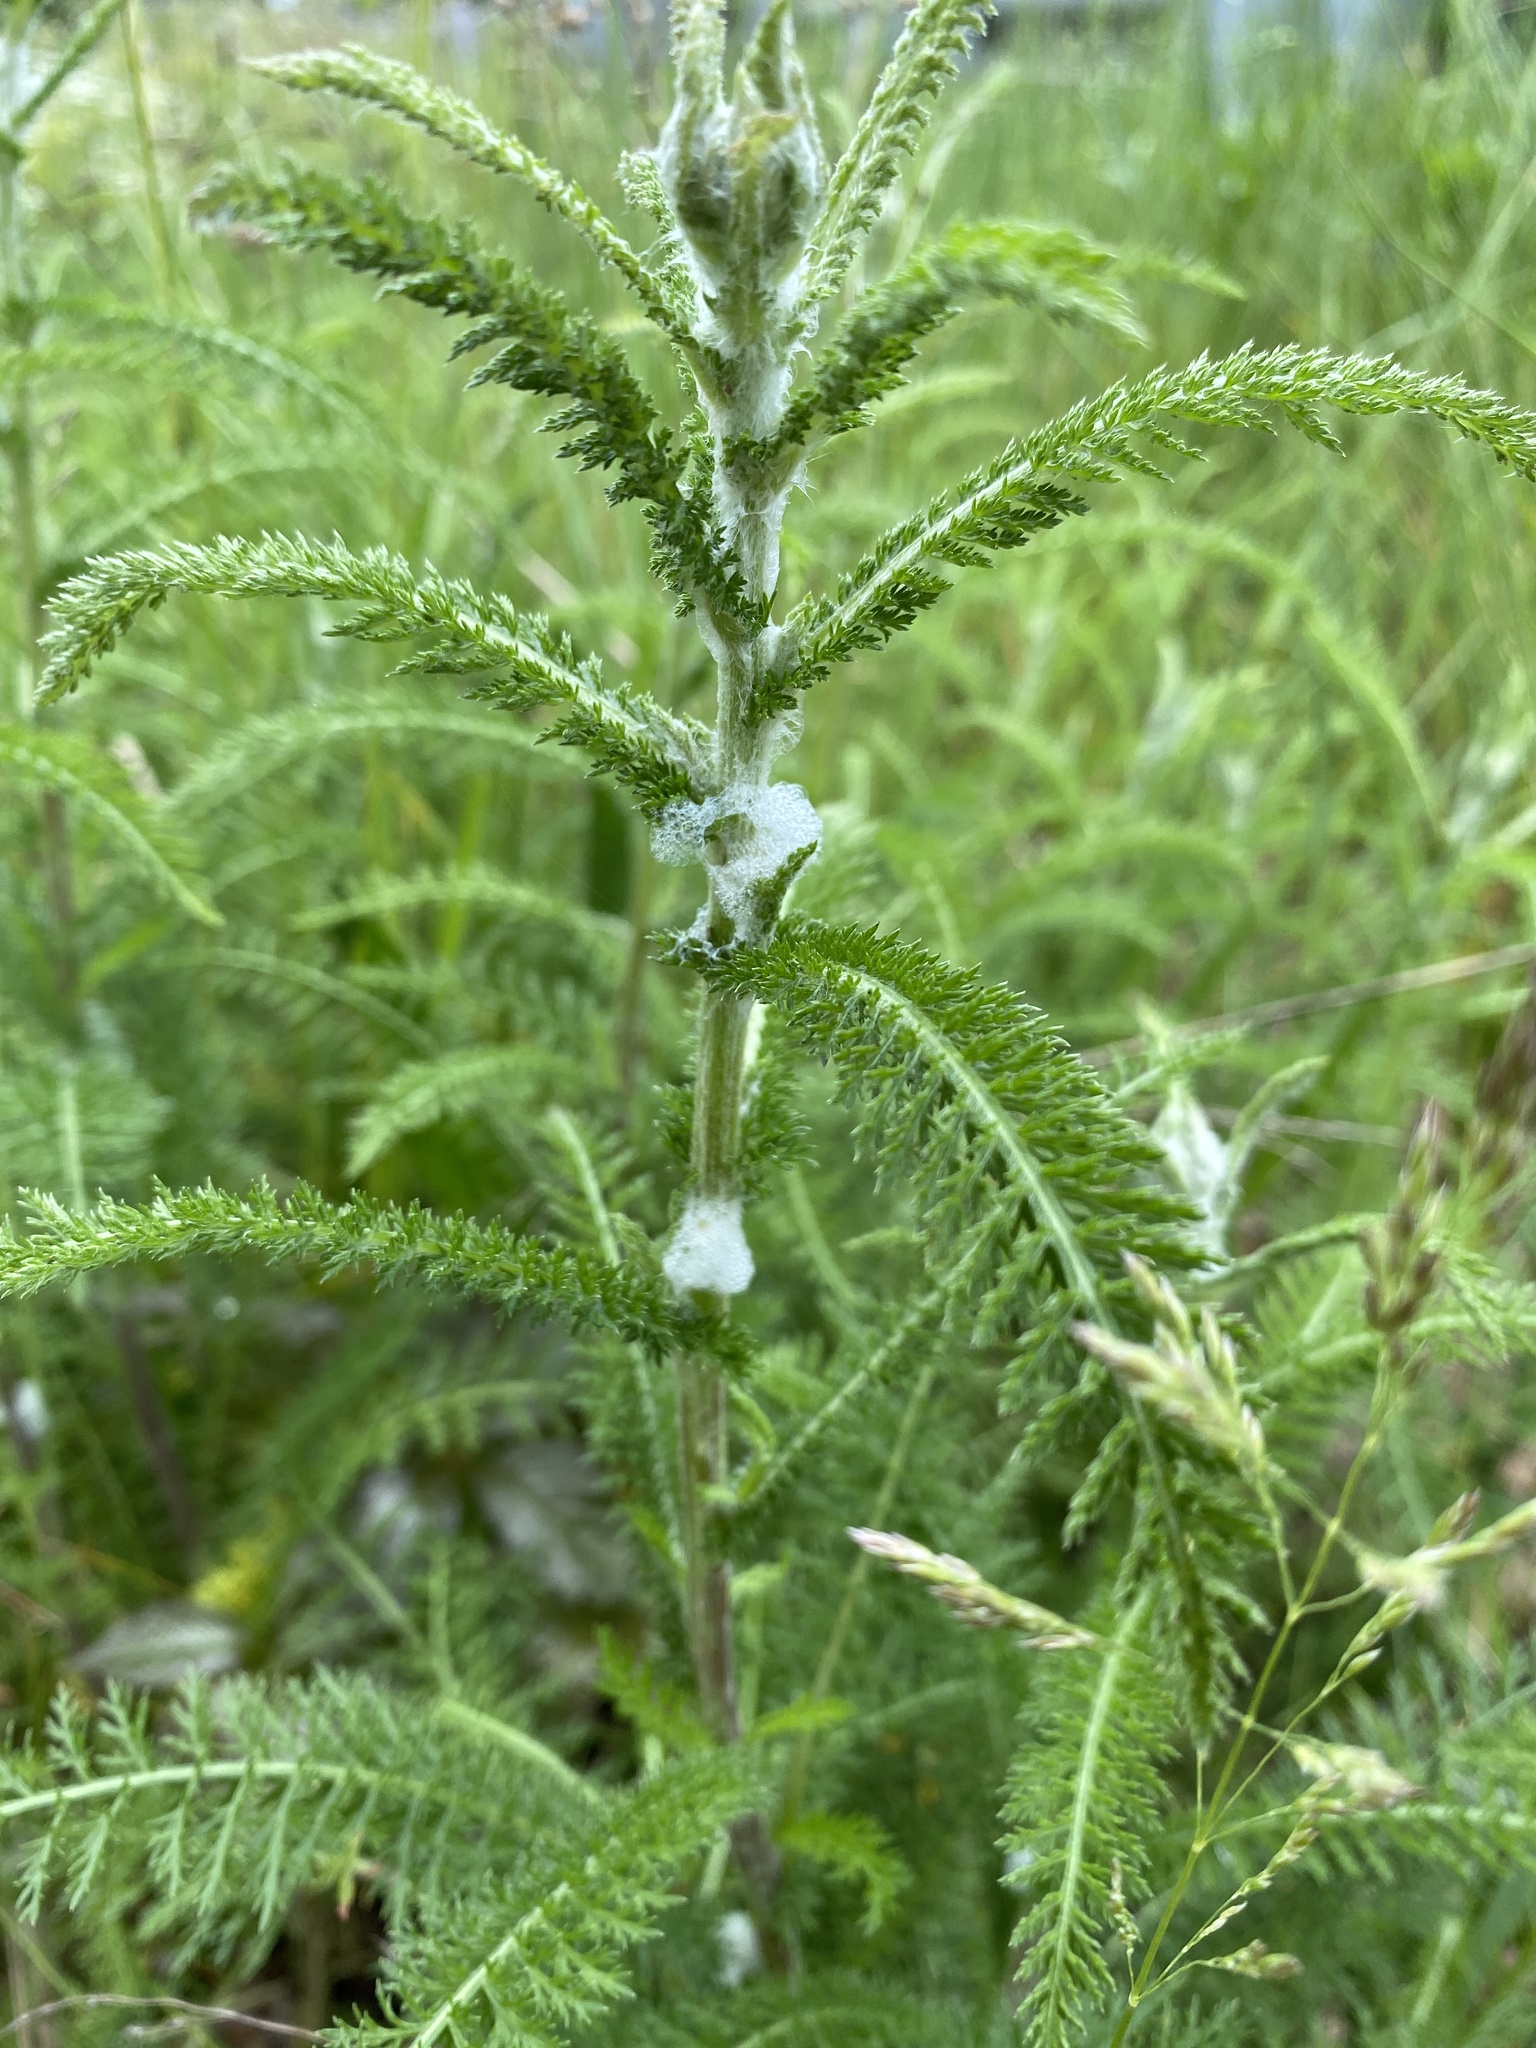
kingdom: Plantae
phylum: Tracheophyta
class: Magnoliopsida
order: Asterales
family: Asteraceae
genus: Achillea
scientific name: Achillea millefolium
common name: Yarrow
